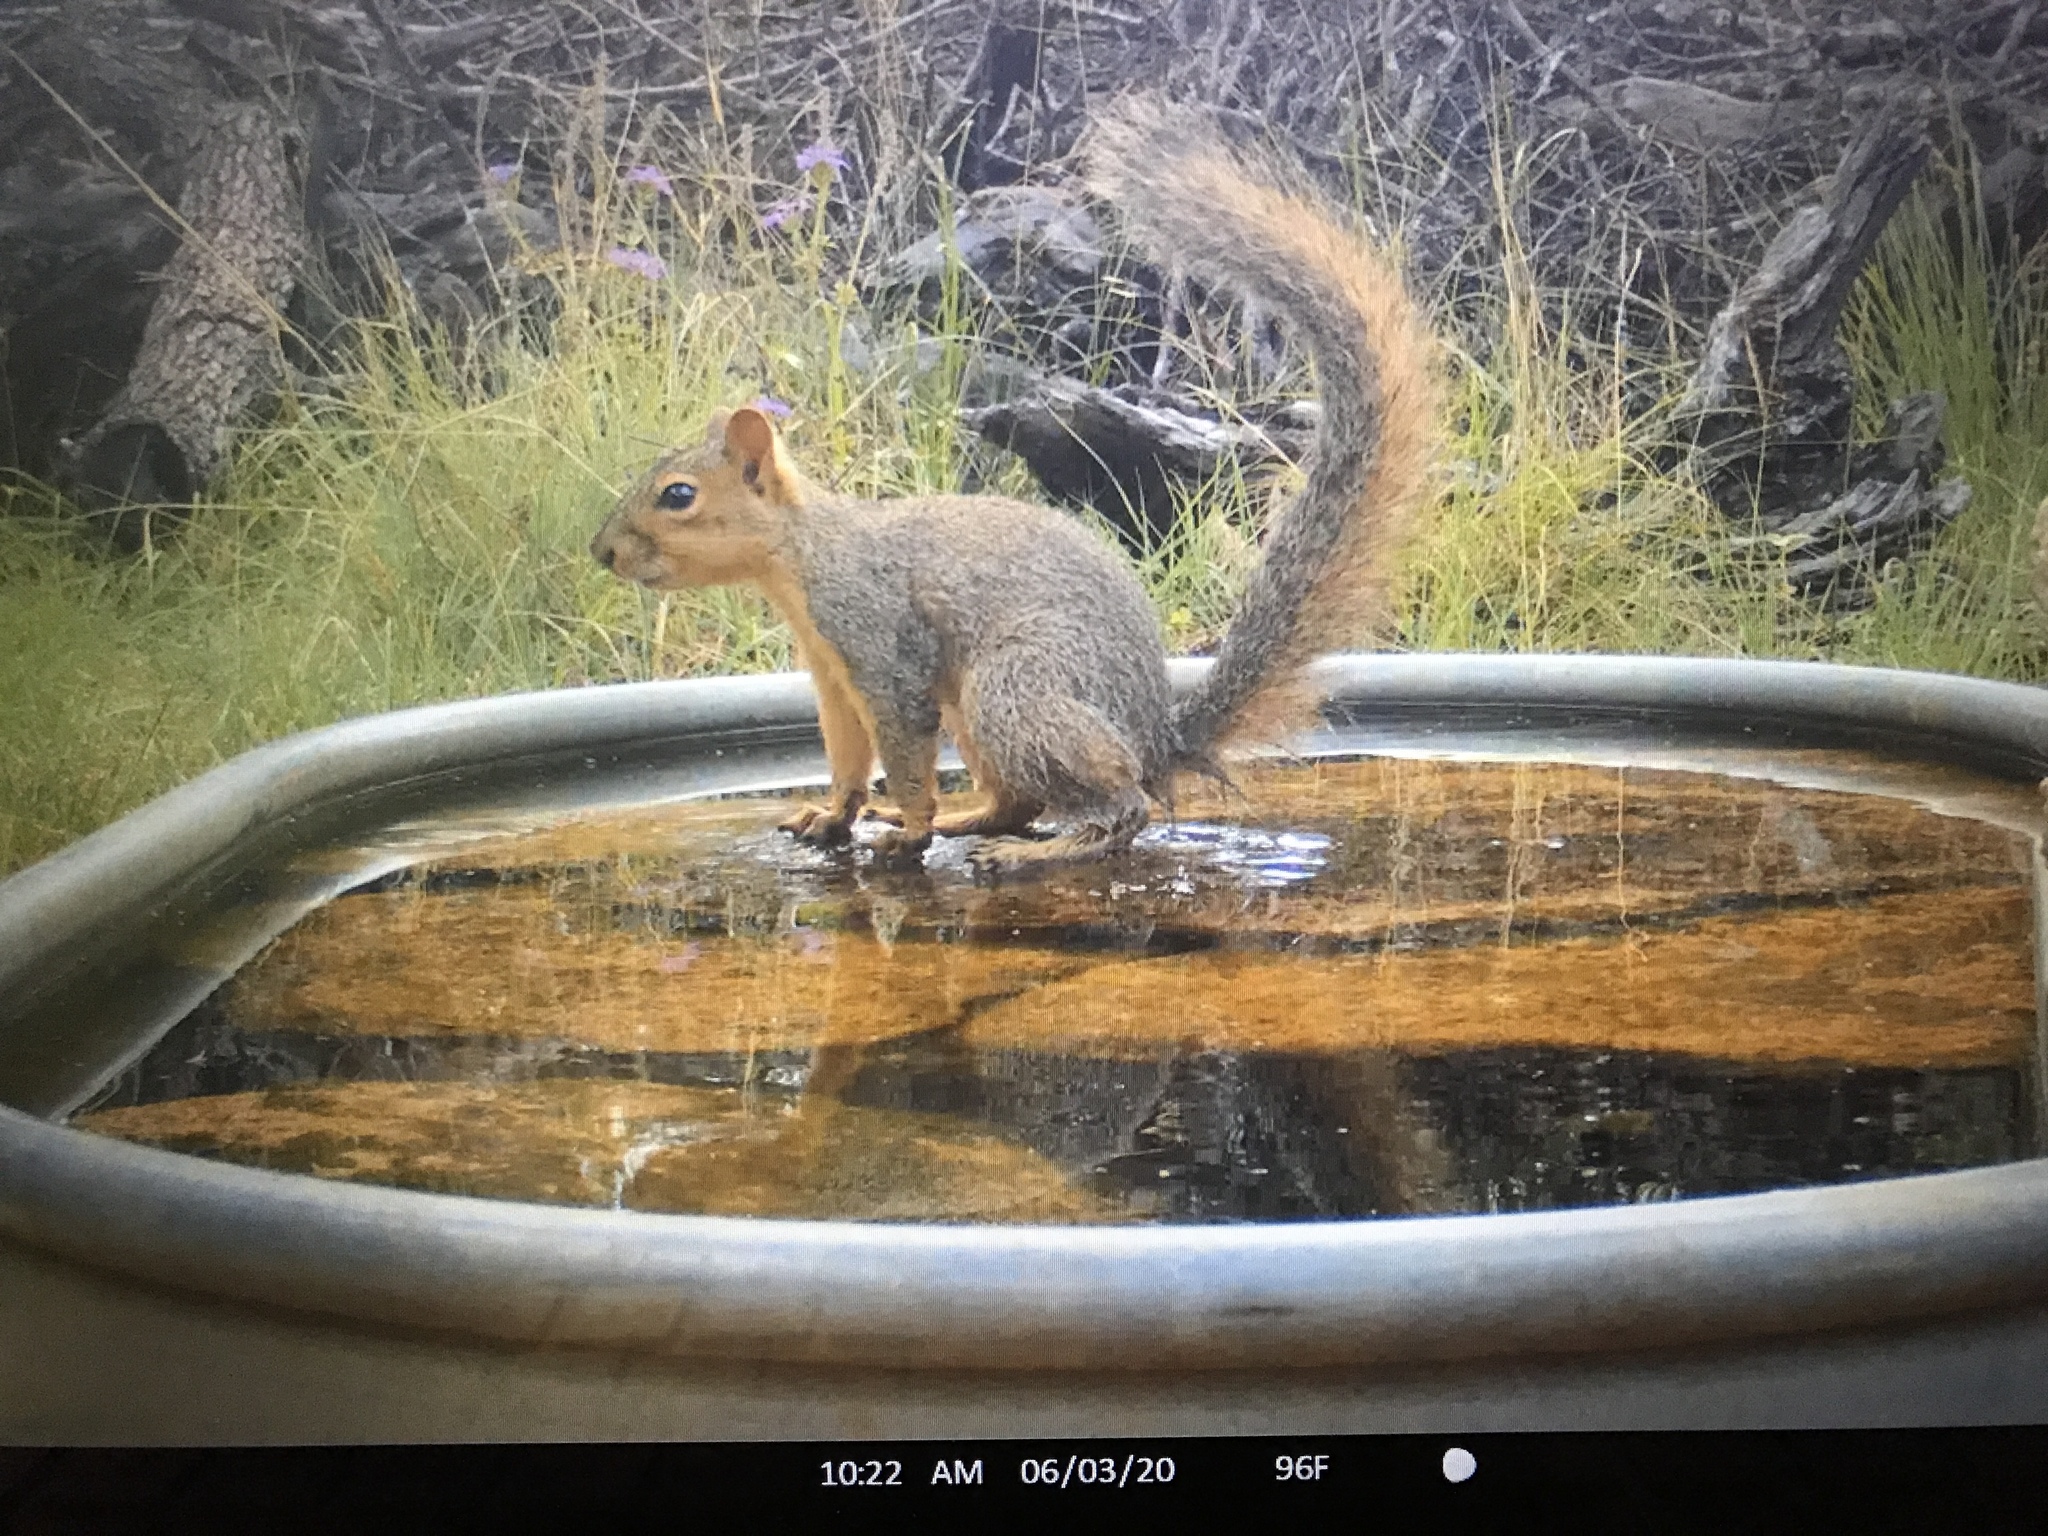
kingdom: Animalia
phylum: Chordata
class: Mammalia
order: Rodentia
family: Sciuridae
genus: Sciurus
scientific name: Sciurus niger
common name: Fox squirrel
